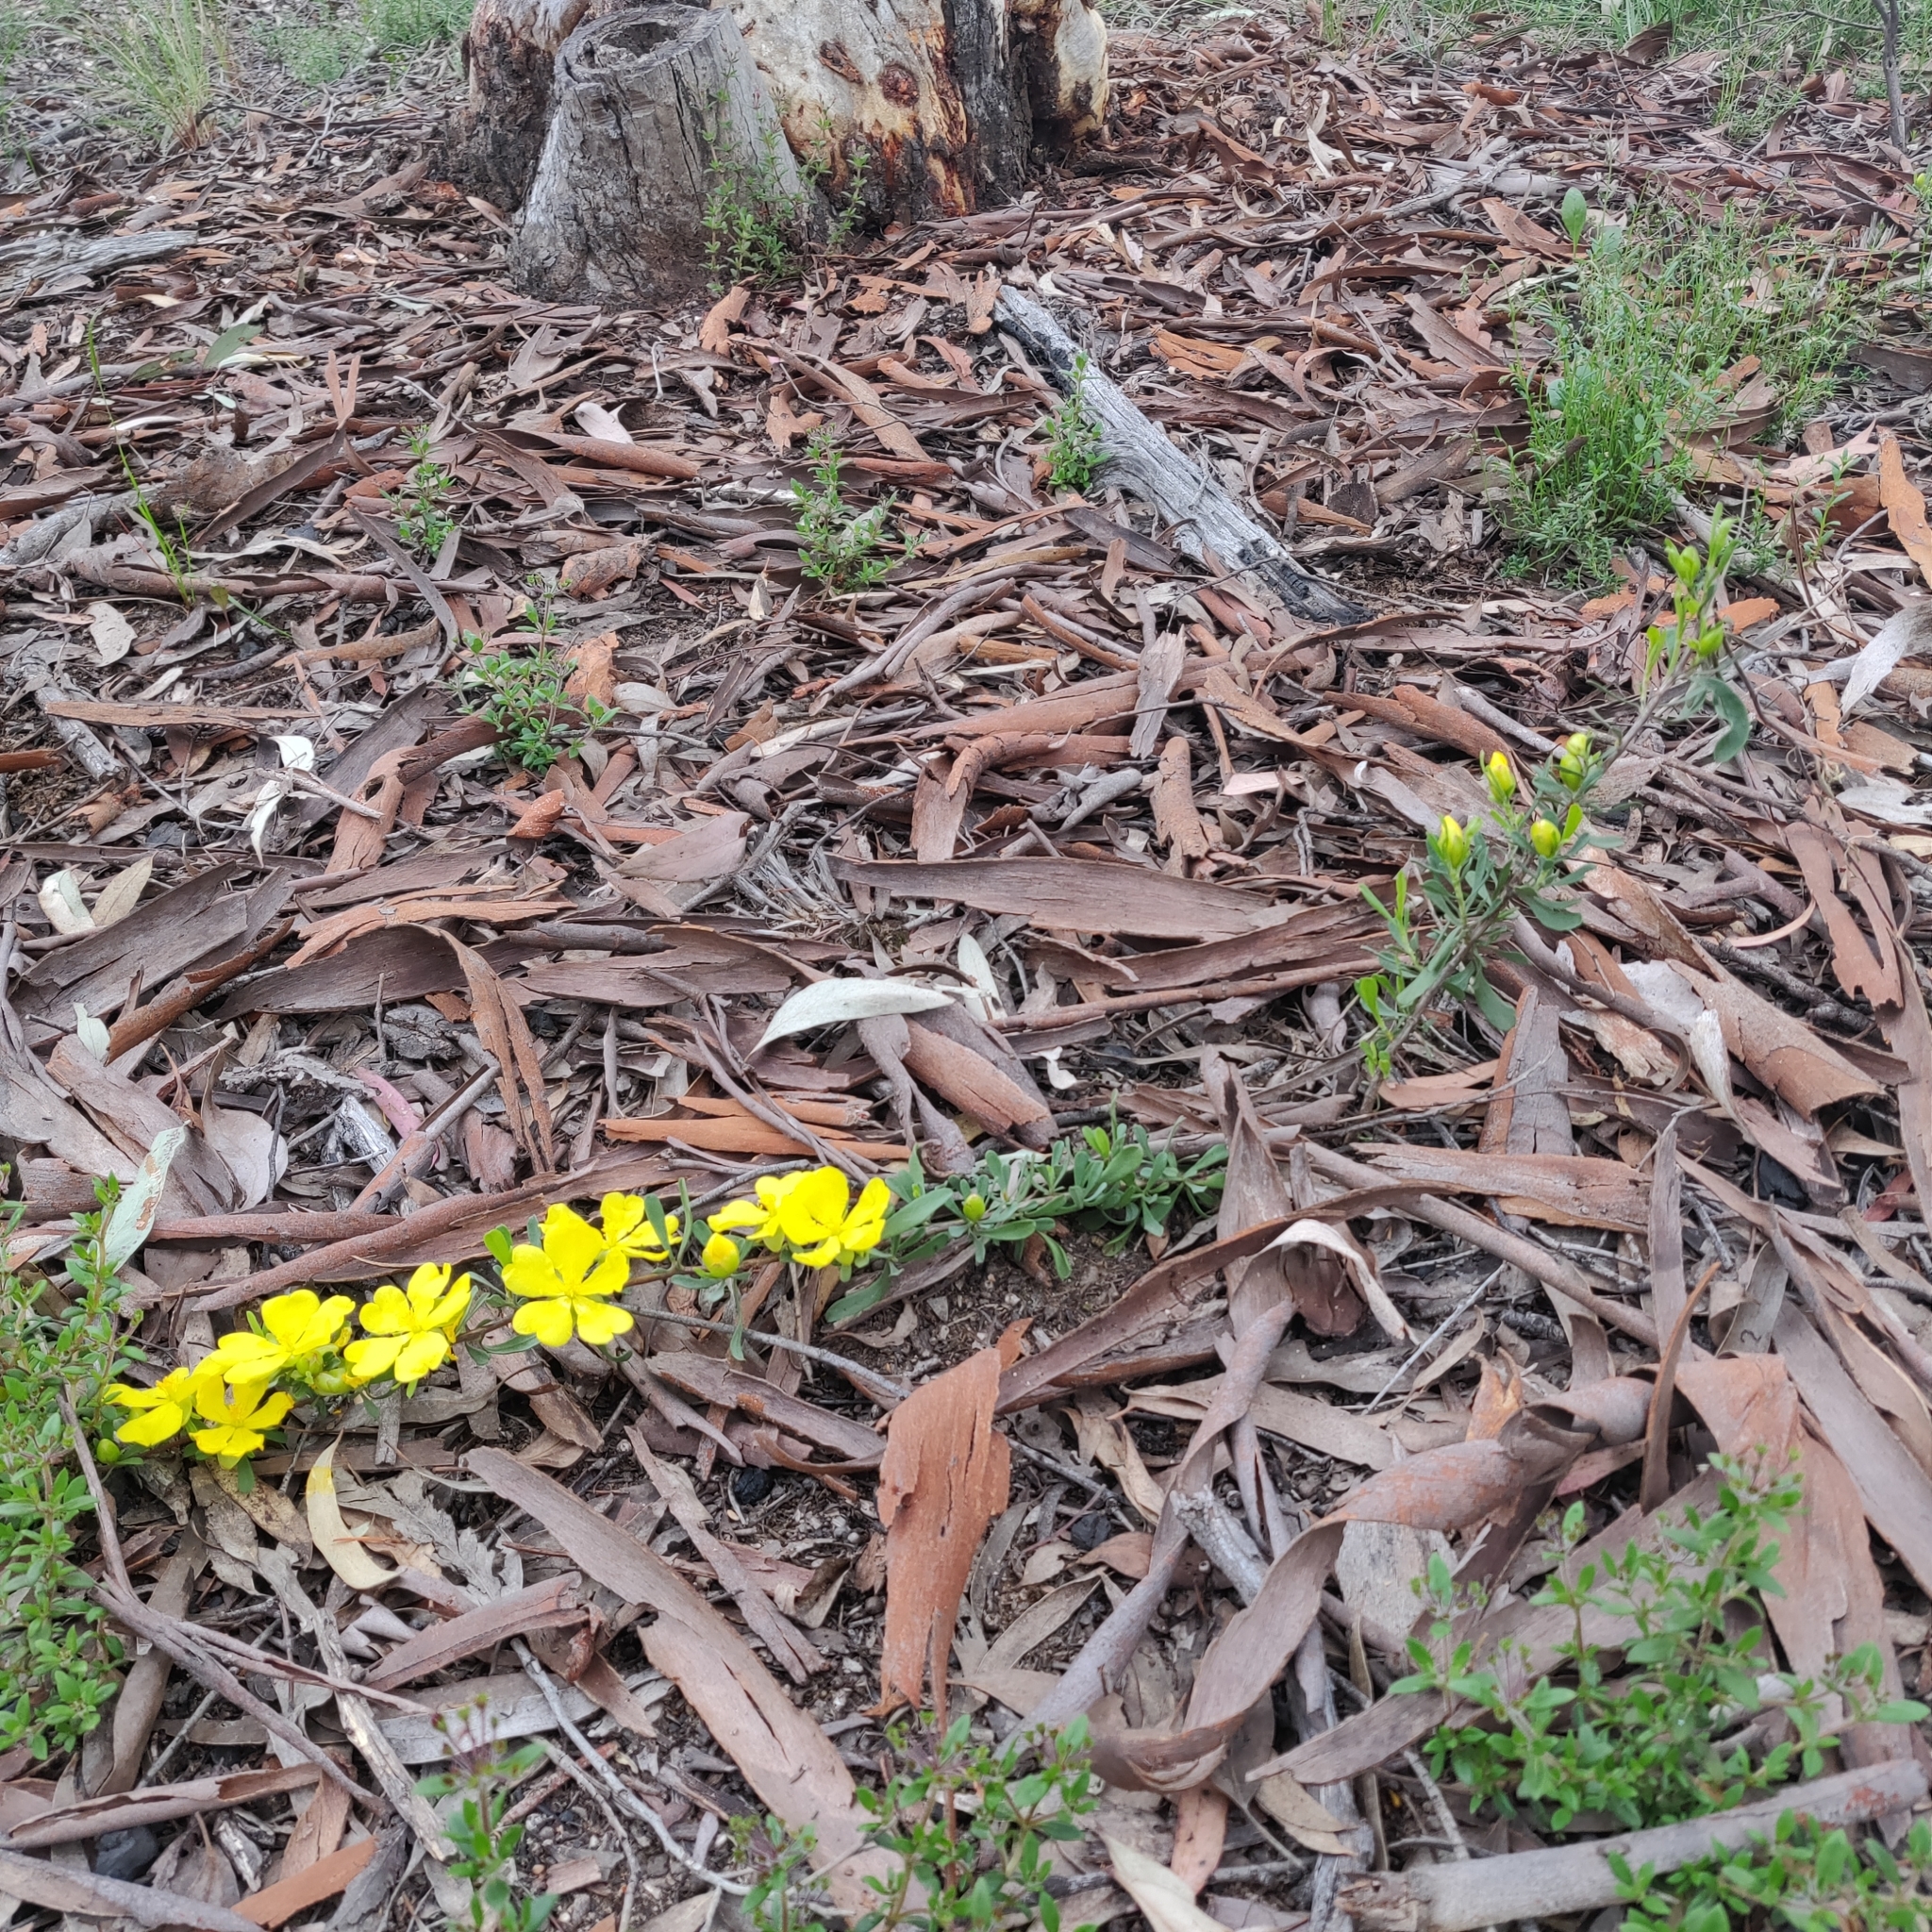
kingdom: Plantae
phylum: Tracheophyta
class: Magnoliopsida
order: Dilleniales
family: Dilleniaceae
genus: Hibbertia
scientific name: Hibbertia obtusifolia
